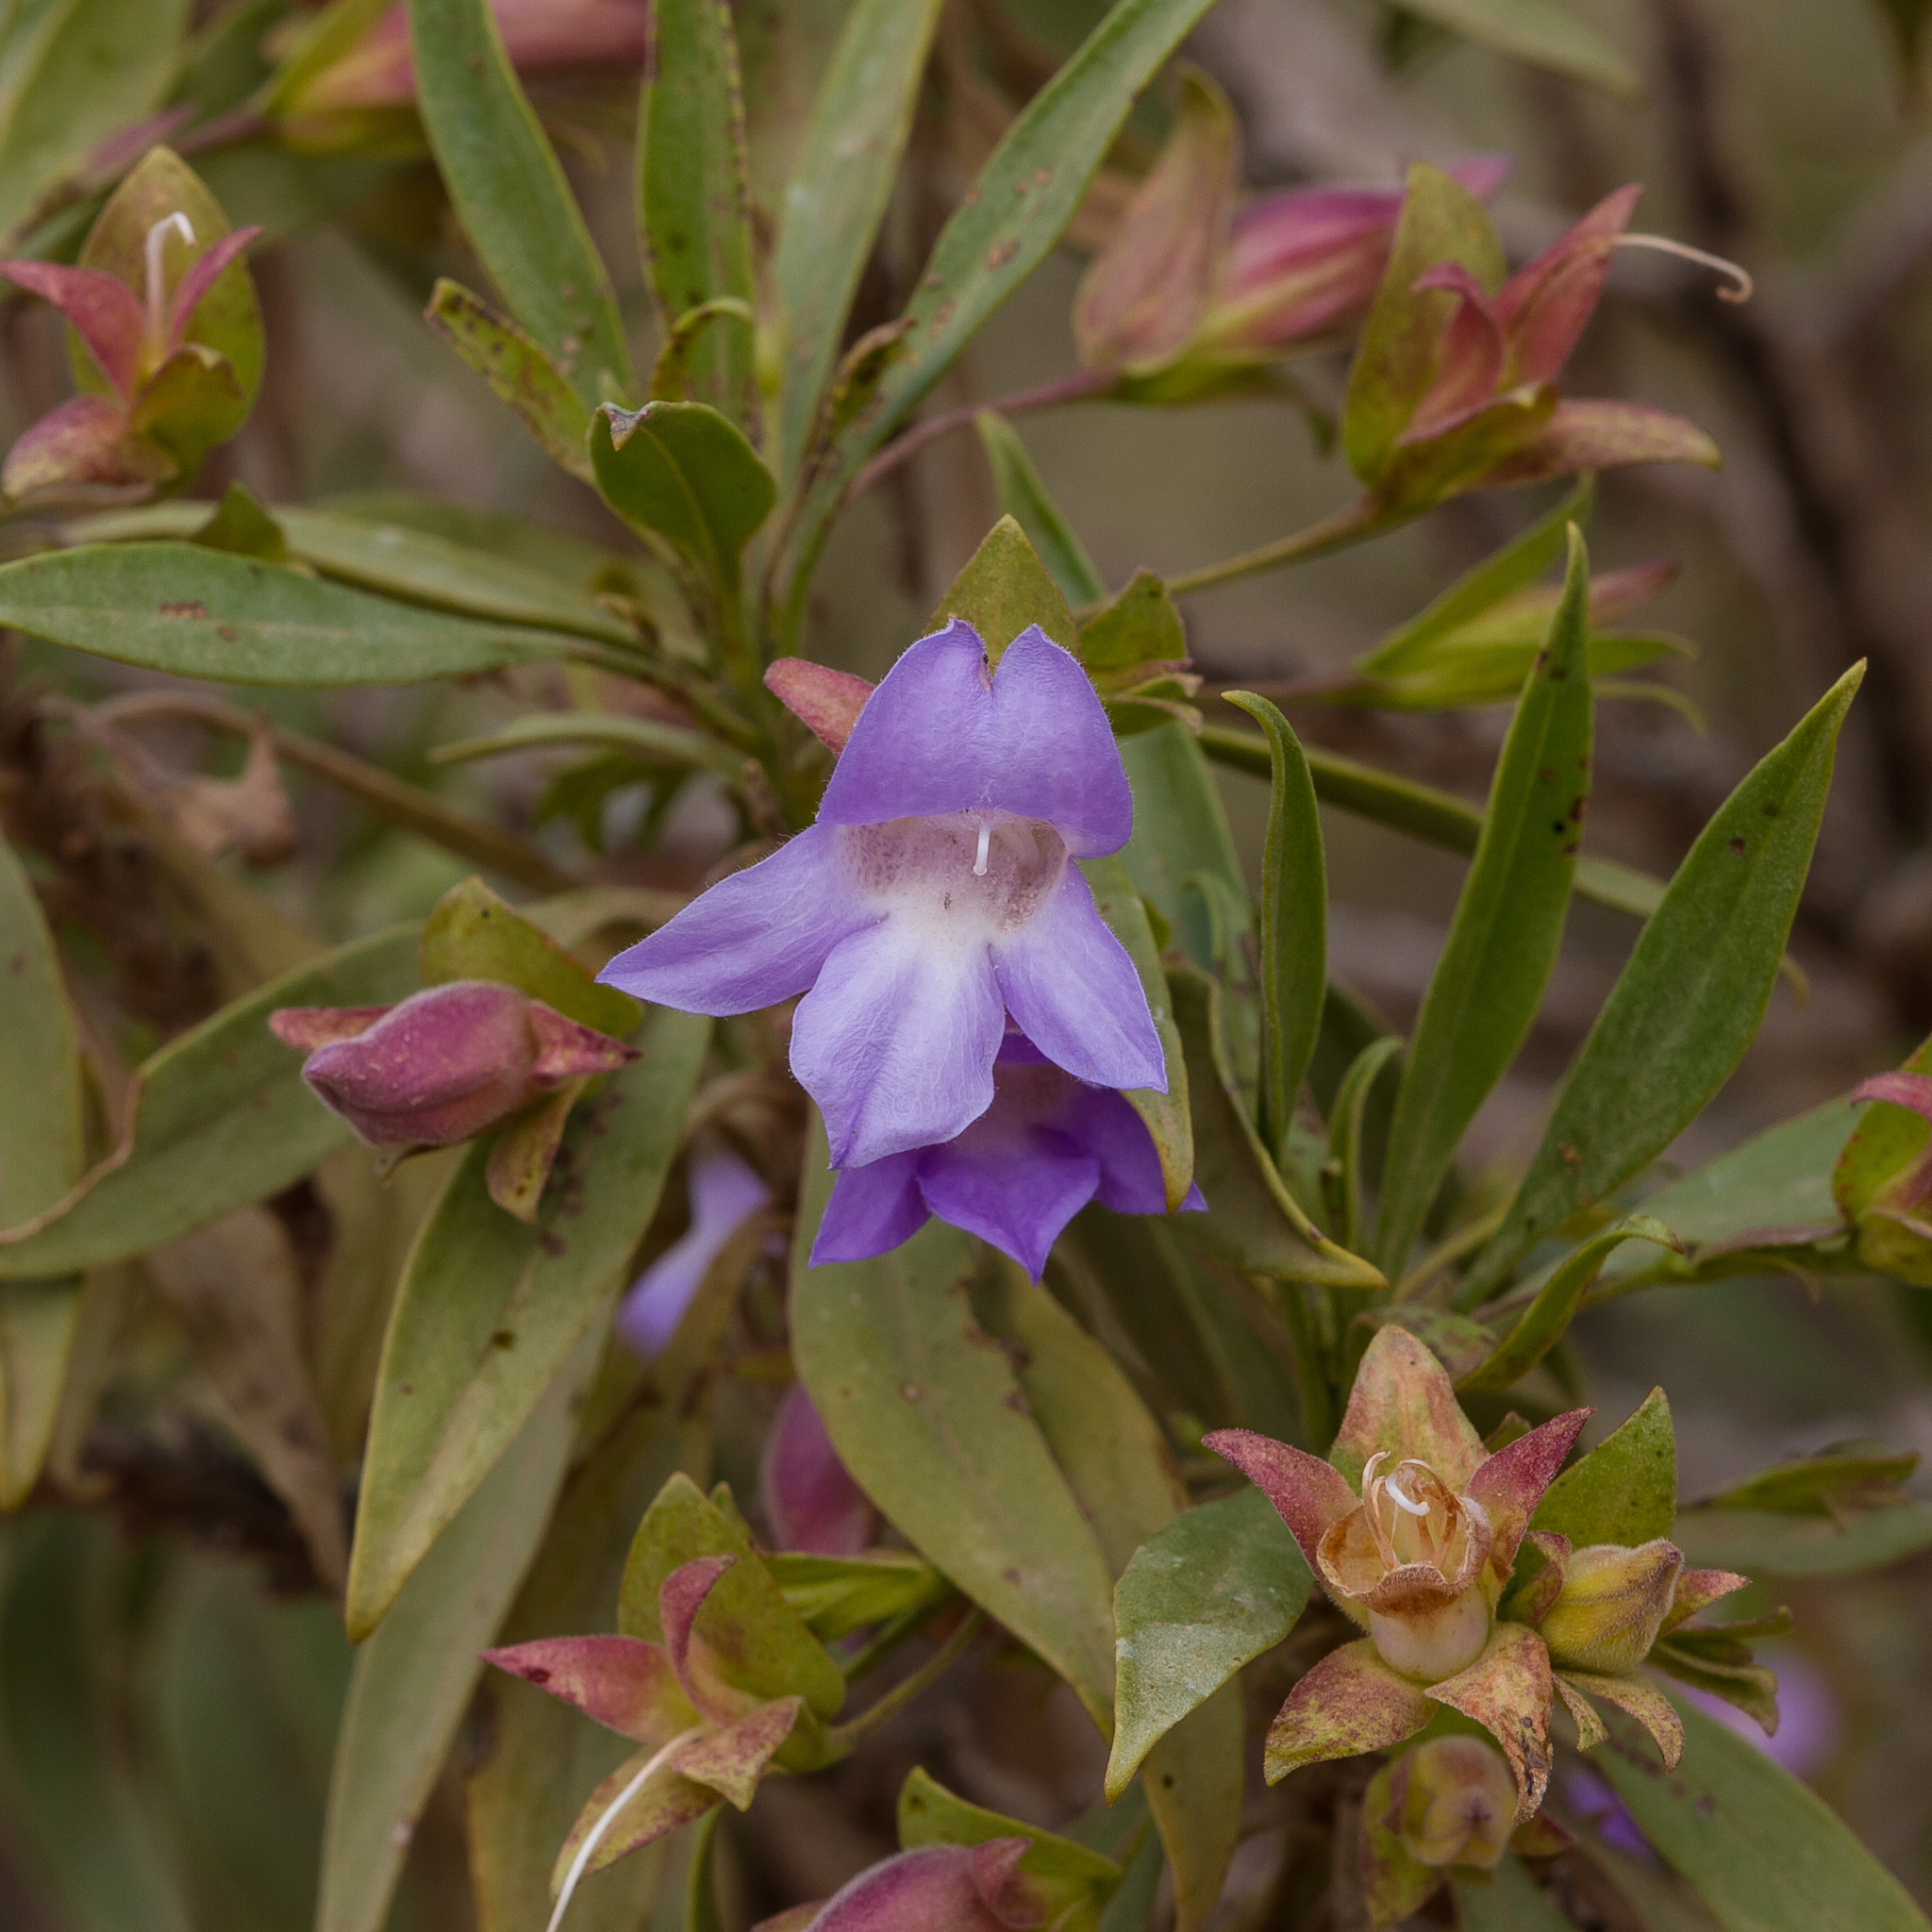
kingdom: Plantae
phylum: Tracheophyta
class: Magnoliopsida
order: Lamiales
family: Scrophulariaceae
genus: Eremophila
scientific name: Eremophila freelingii
